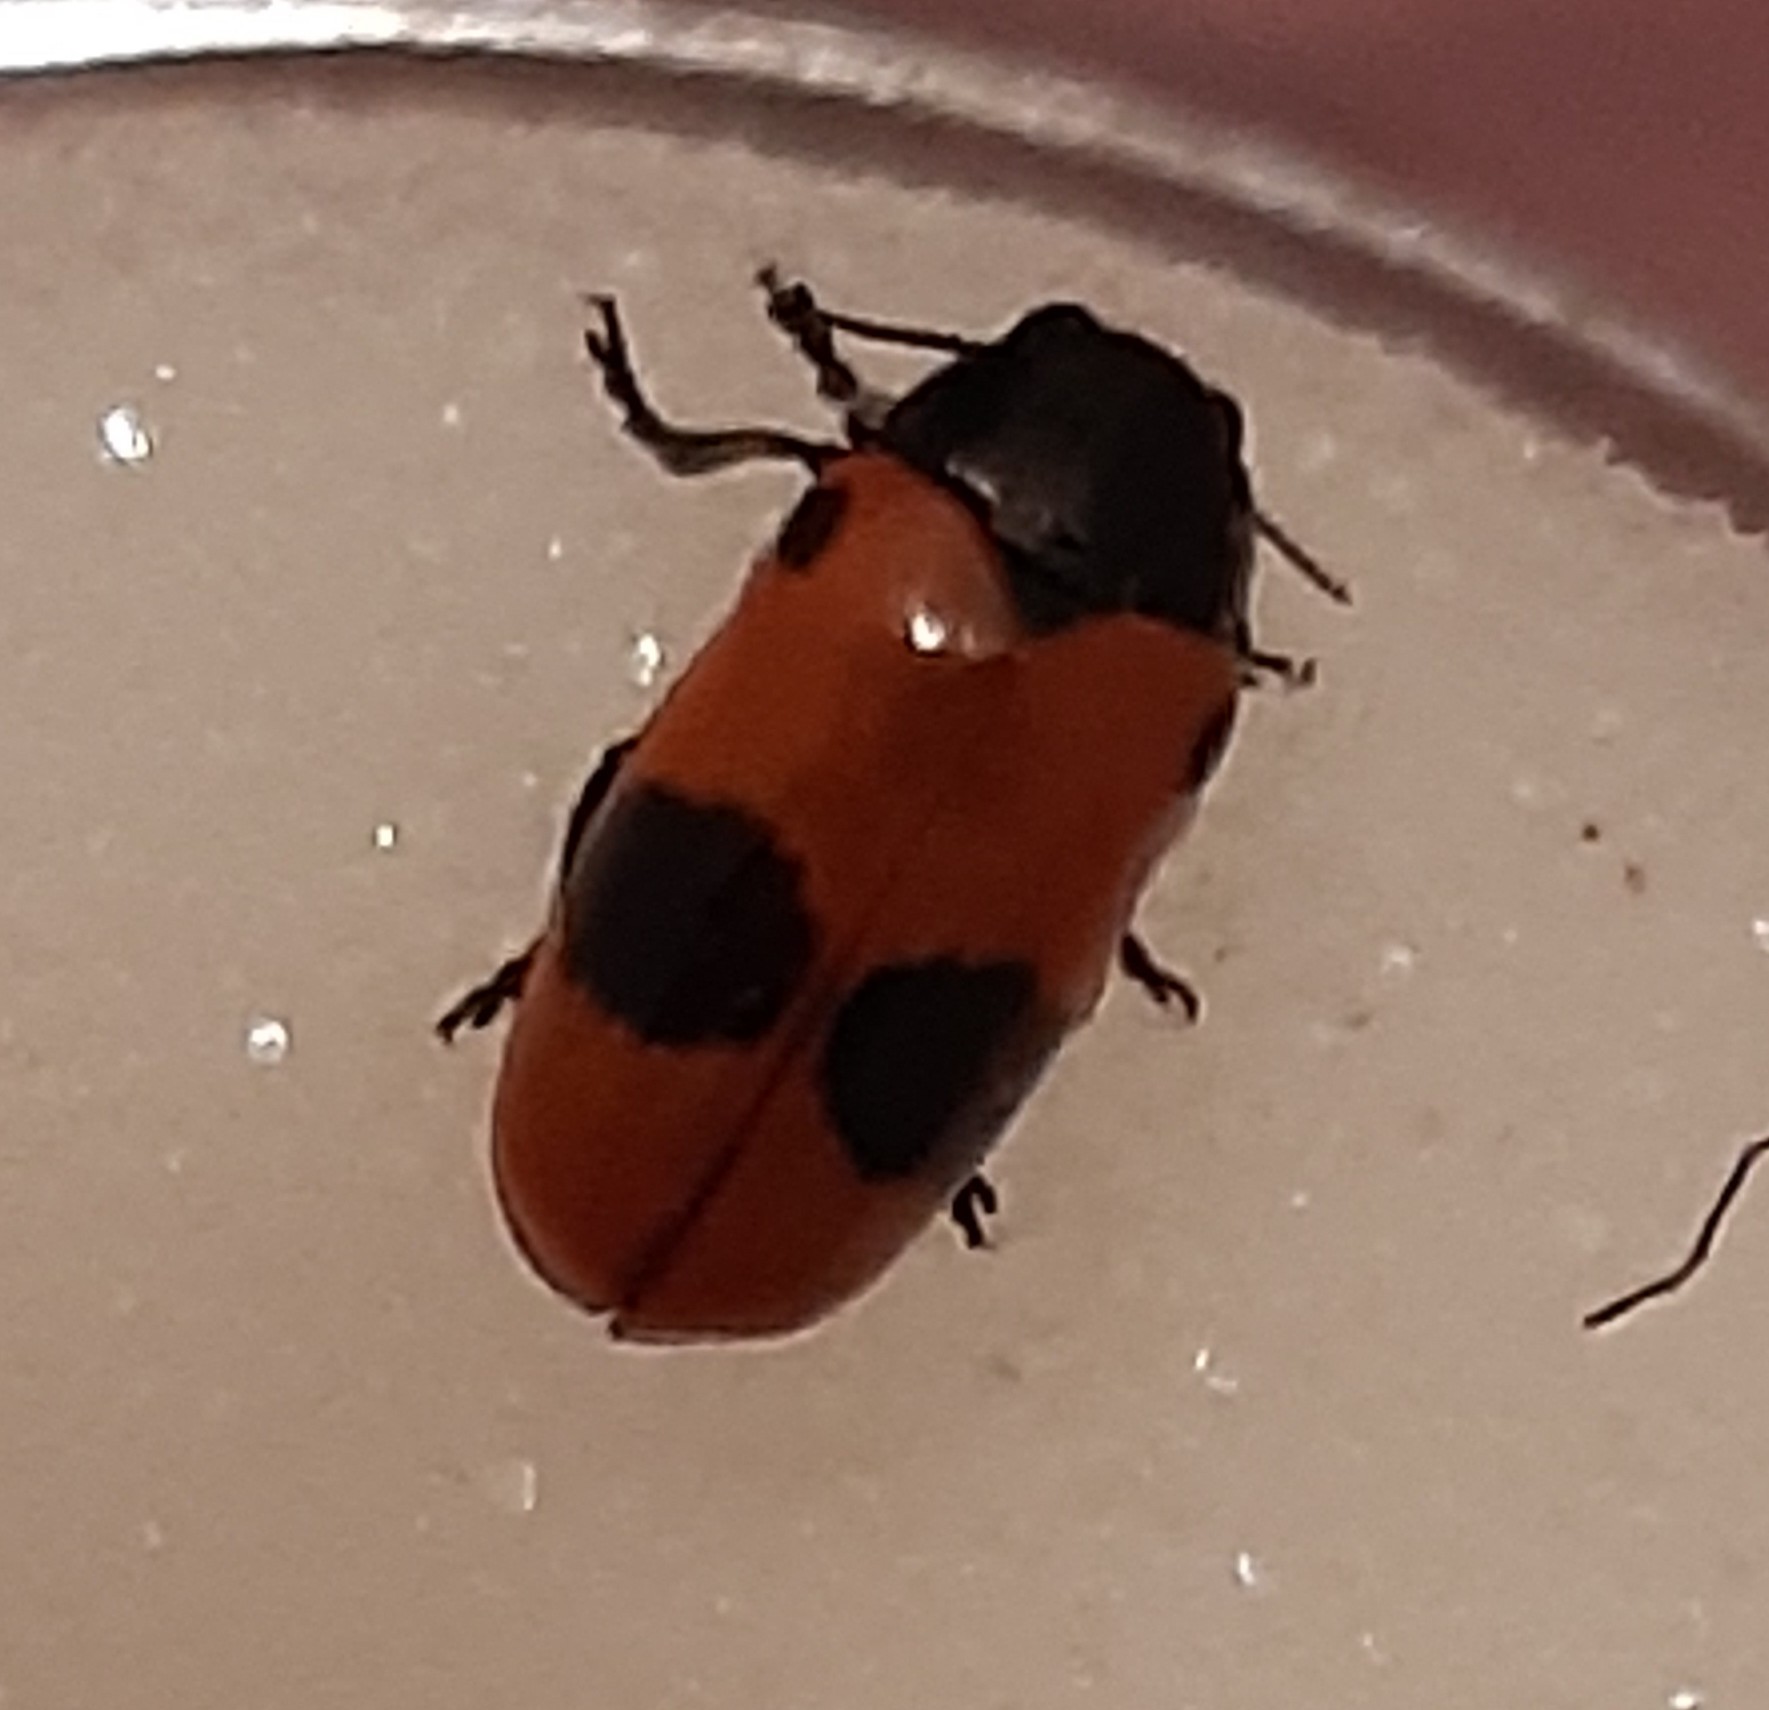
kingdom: Animalia
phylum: Arthropoda
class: Insecta
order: Coleoptera
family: Chrysomelidae
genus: Clytra
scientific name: Clytra laeviuscula
